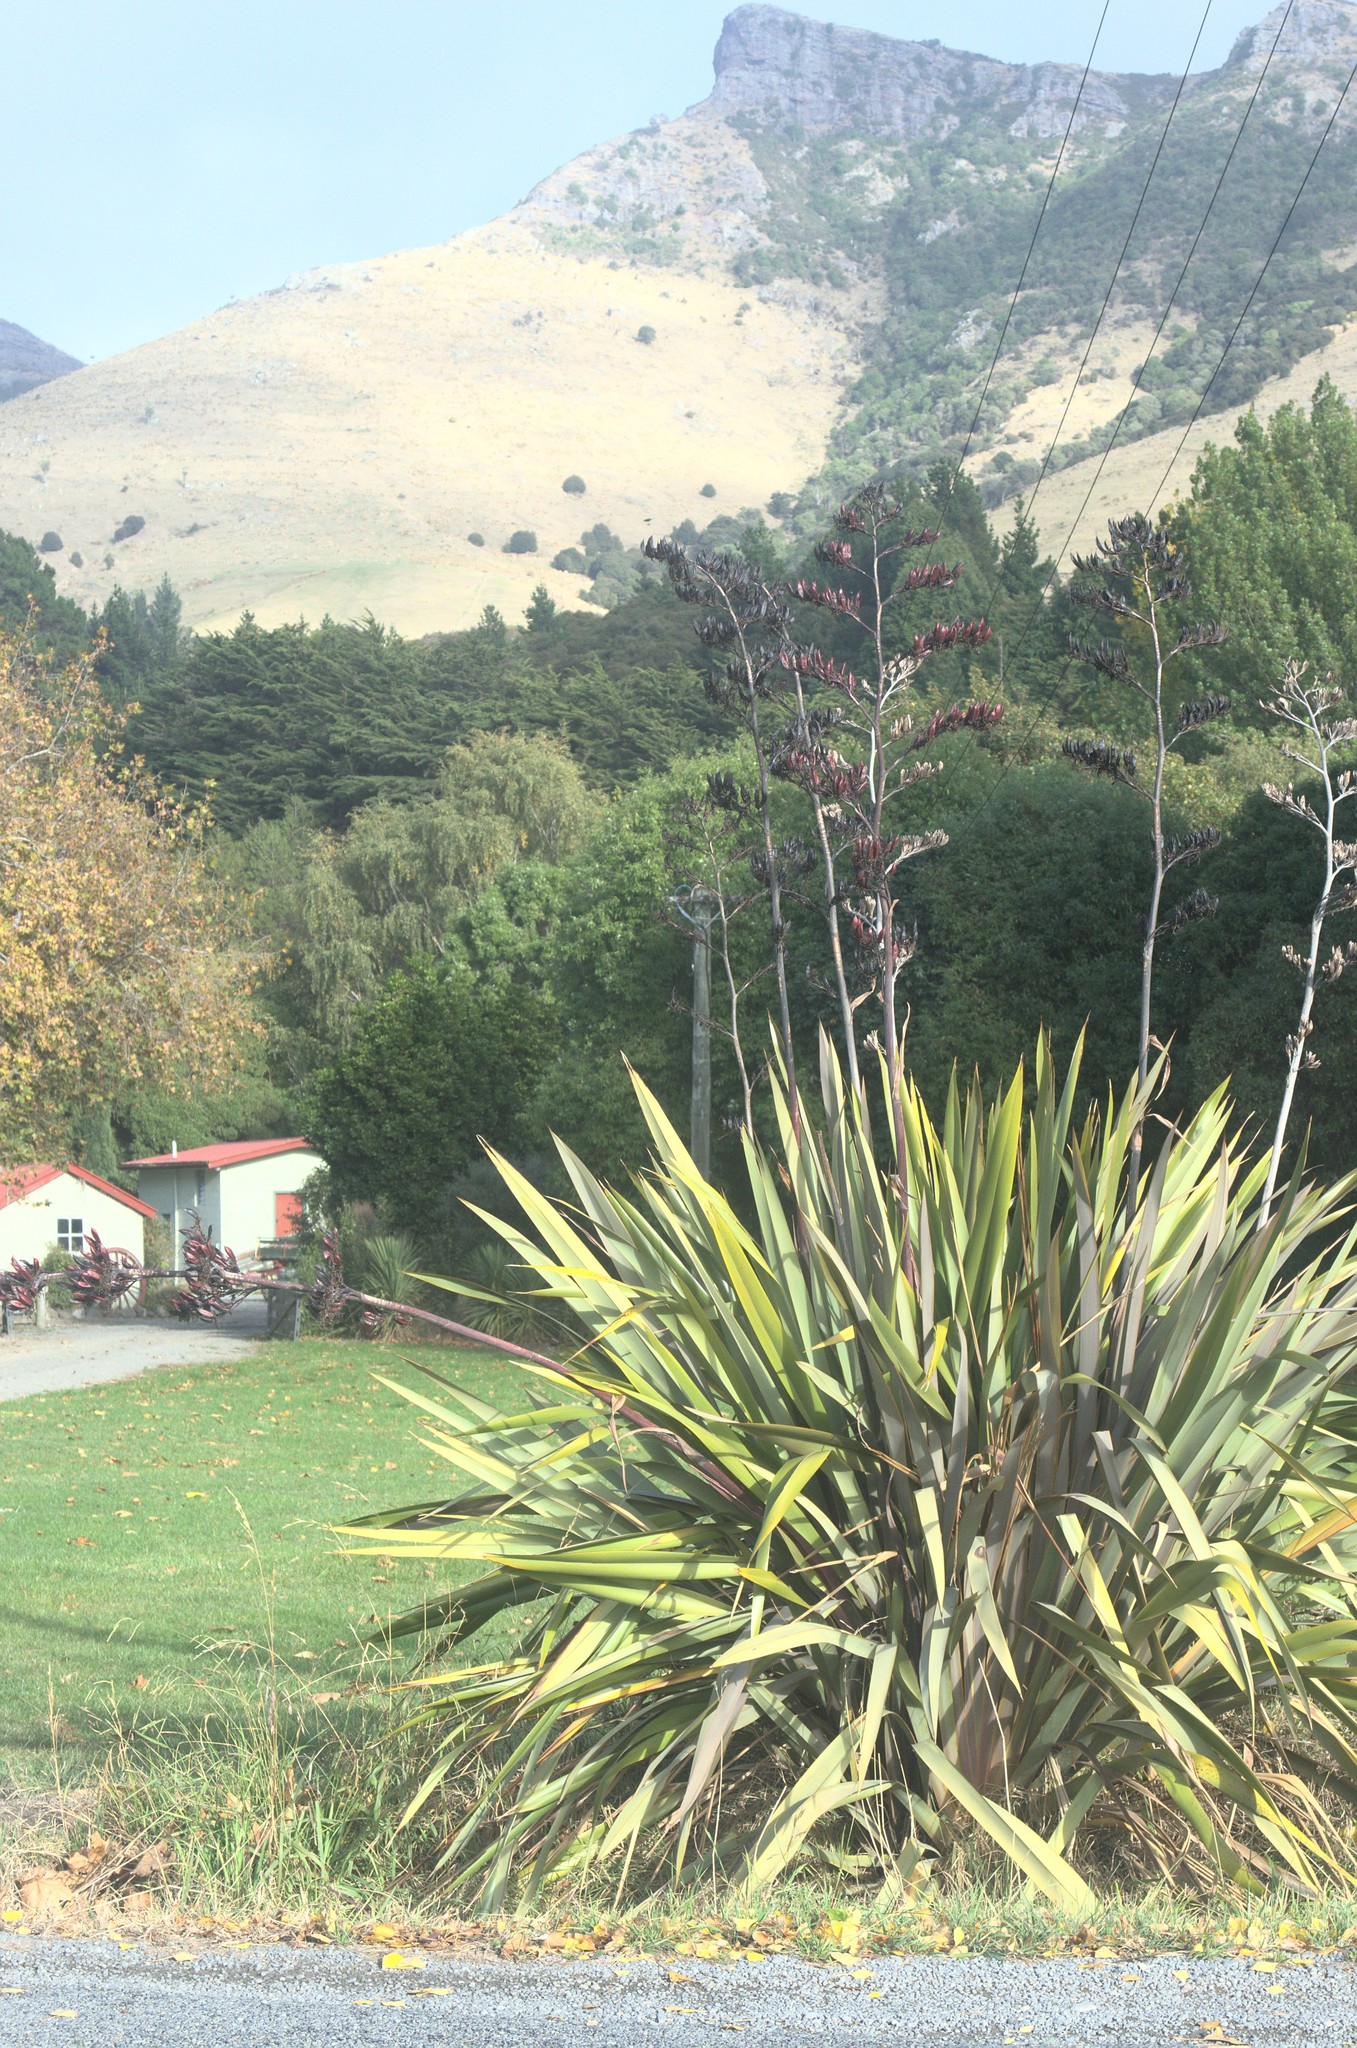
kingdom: Plantae
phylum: Tracheophyta
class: Liliopsida
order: Asparagales
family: Asphodelaceae
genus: Phormium
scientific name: Phormium tenax
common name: New zealand flax
